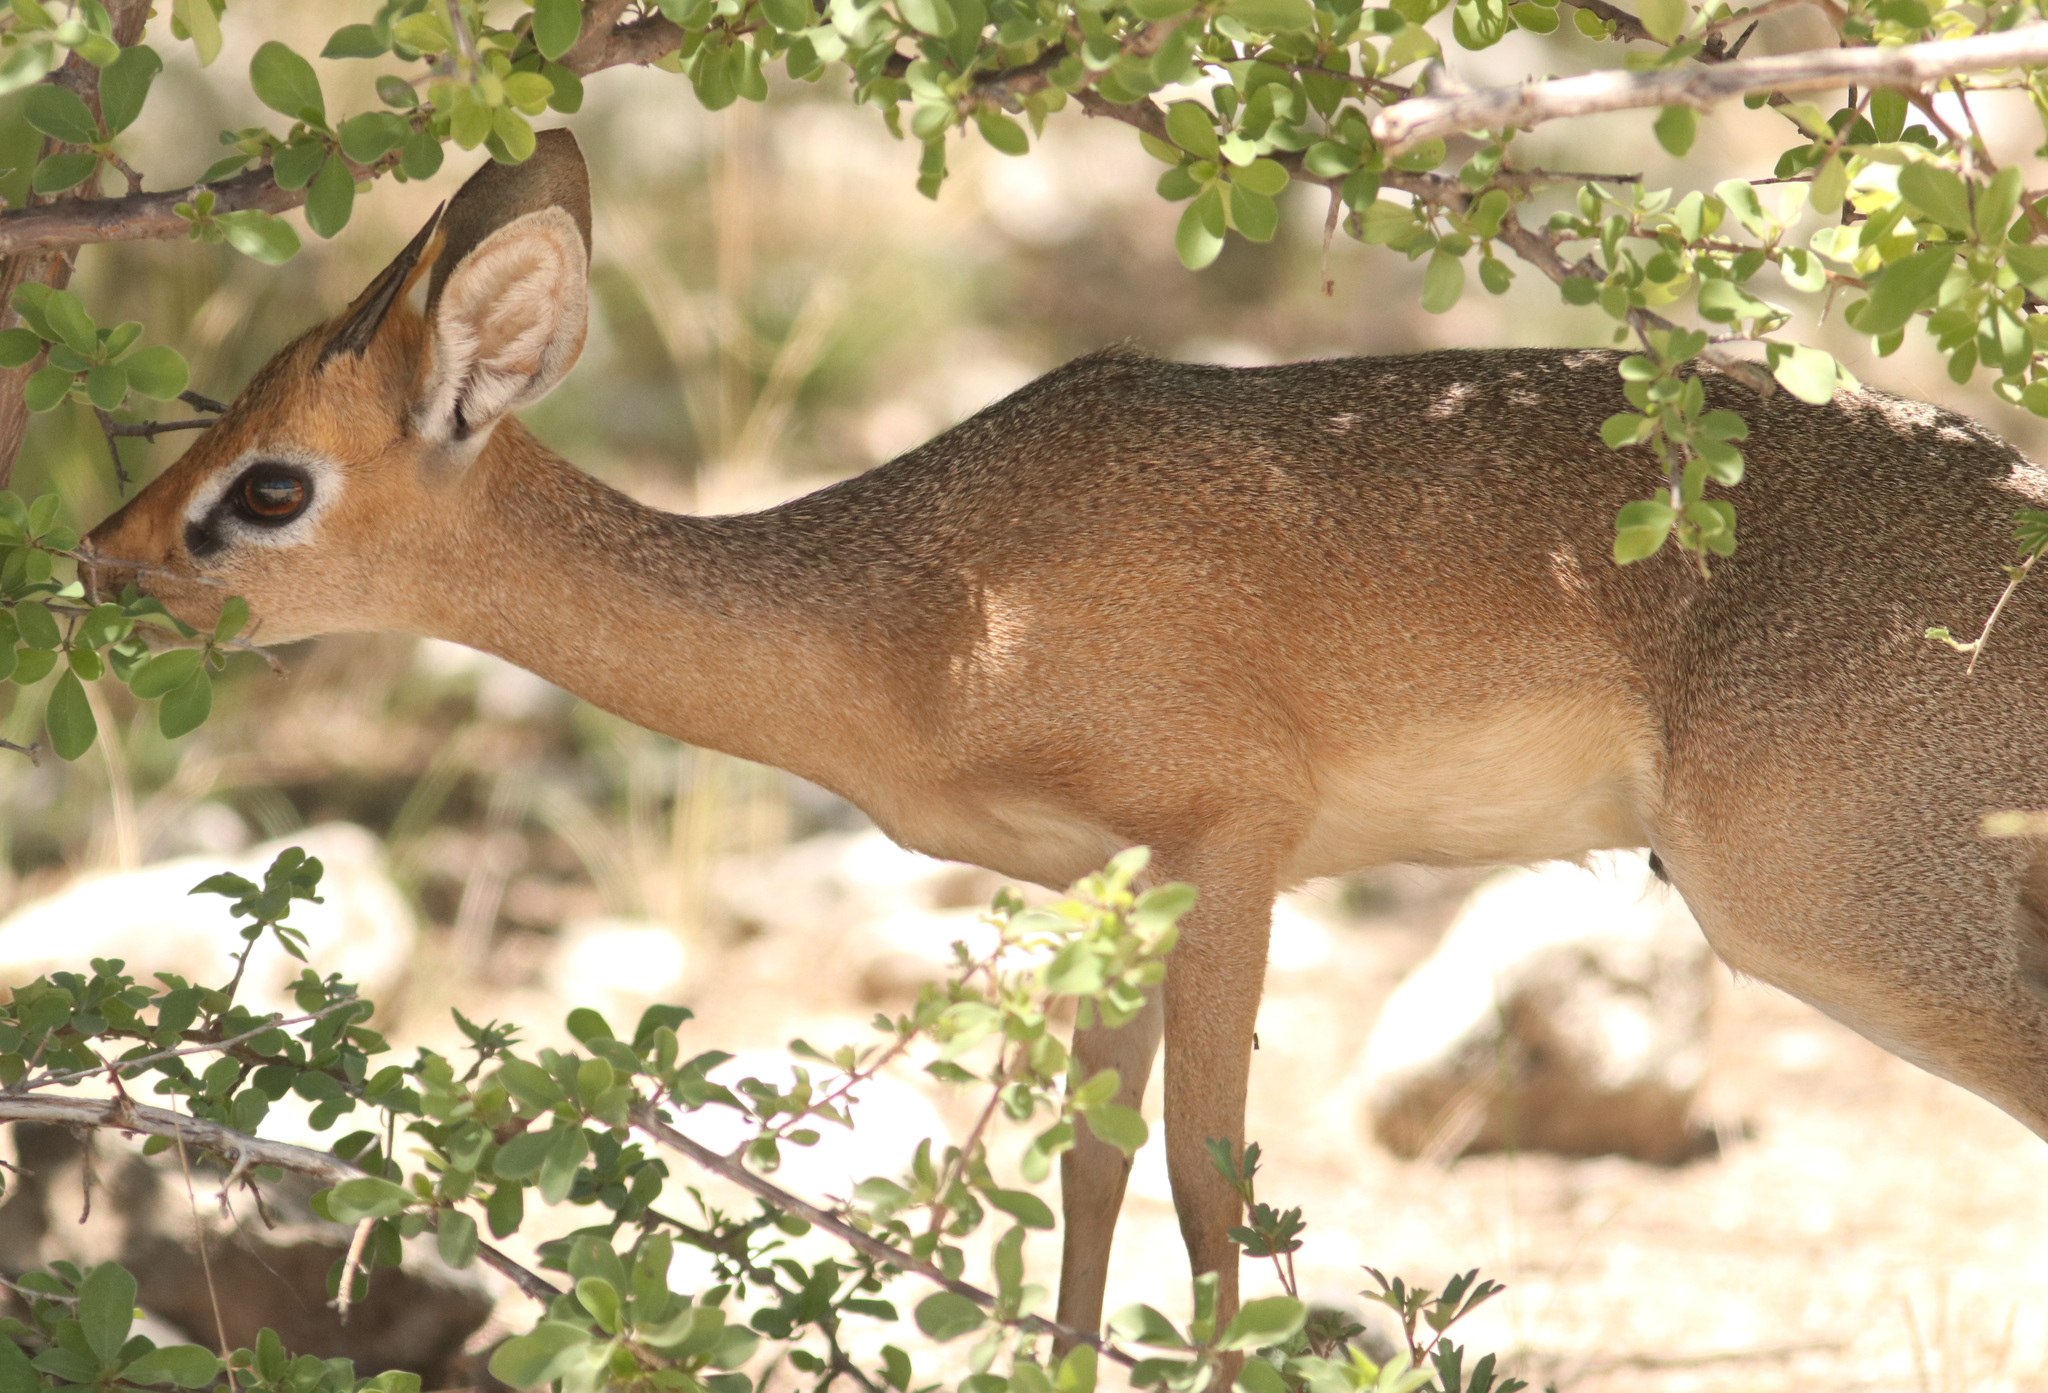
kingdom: Animalia
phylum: Chordata
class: Mammalia
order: Artiodactyla
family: Bovidae
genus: Madoqua
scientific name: Madoqua kirkii
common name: Kirk's dik-dik
